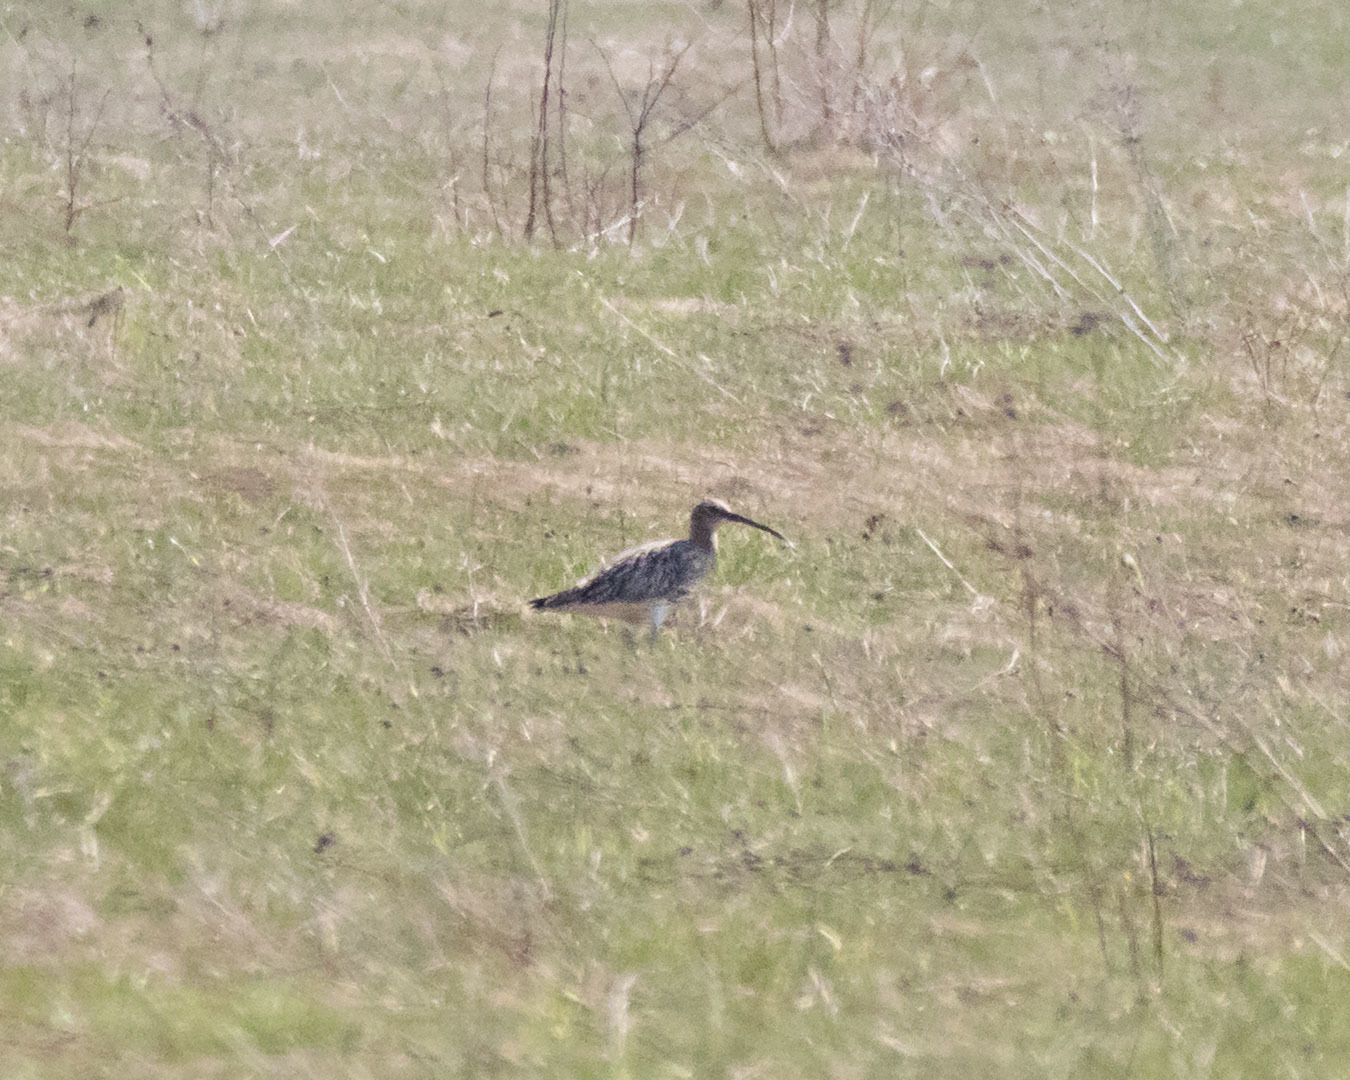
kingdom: Animalia
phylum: Chordata
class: Aves
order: Charadriiformes
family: Scolopacidae
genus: Numenius
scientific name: Numenius arquata
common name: Eurasian curlew
